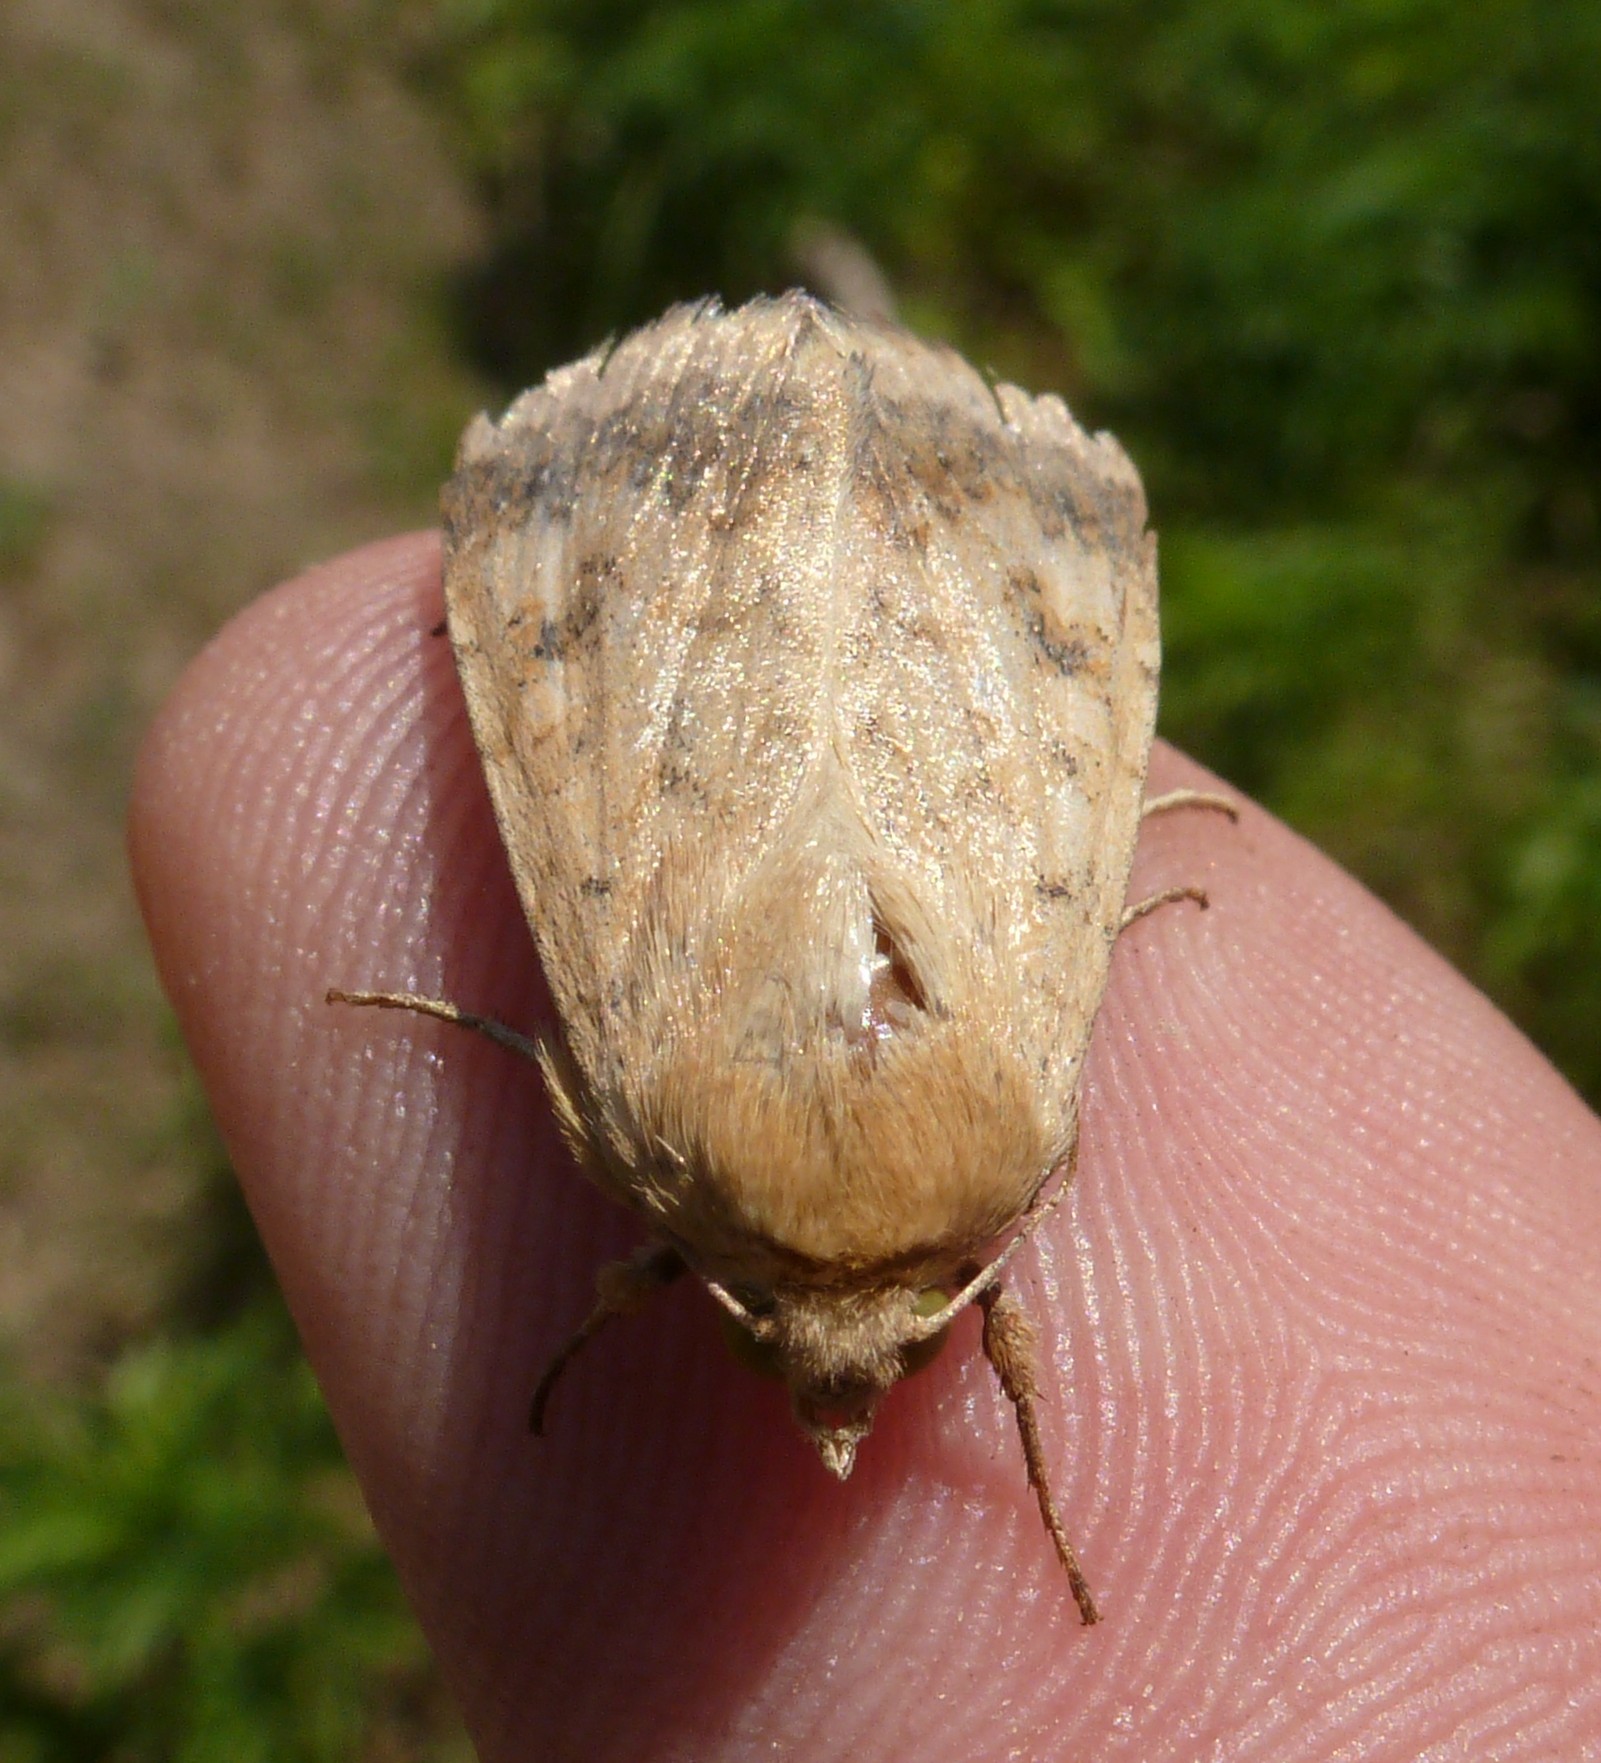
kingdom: Animalia
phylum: Arthropoda
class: Insecta
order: Lepidoptera
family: Noctuidae
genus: Helicoverpa
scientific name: Helicoverpa armigera
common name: Cotton bollworm
